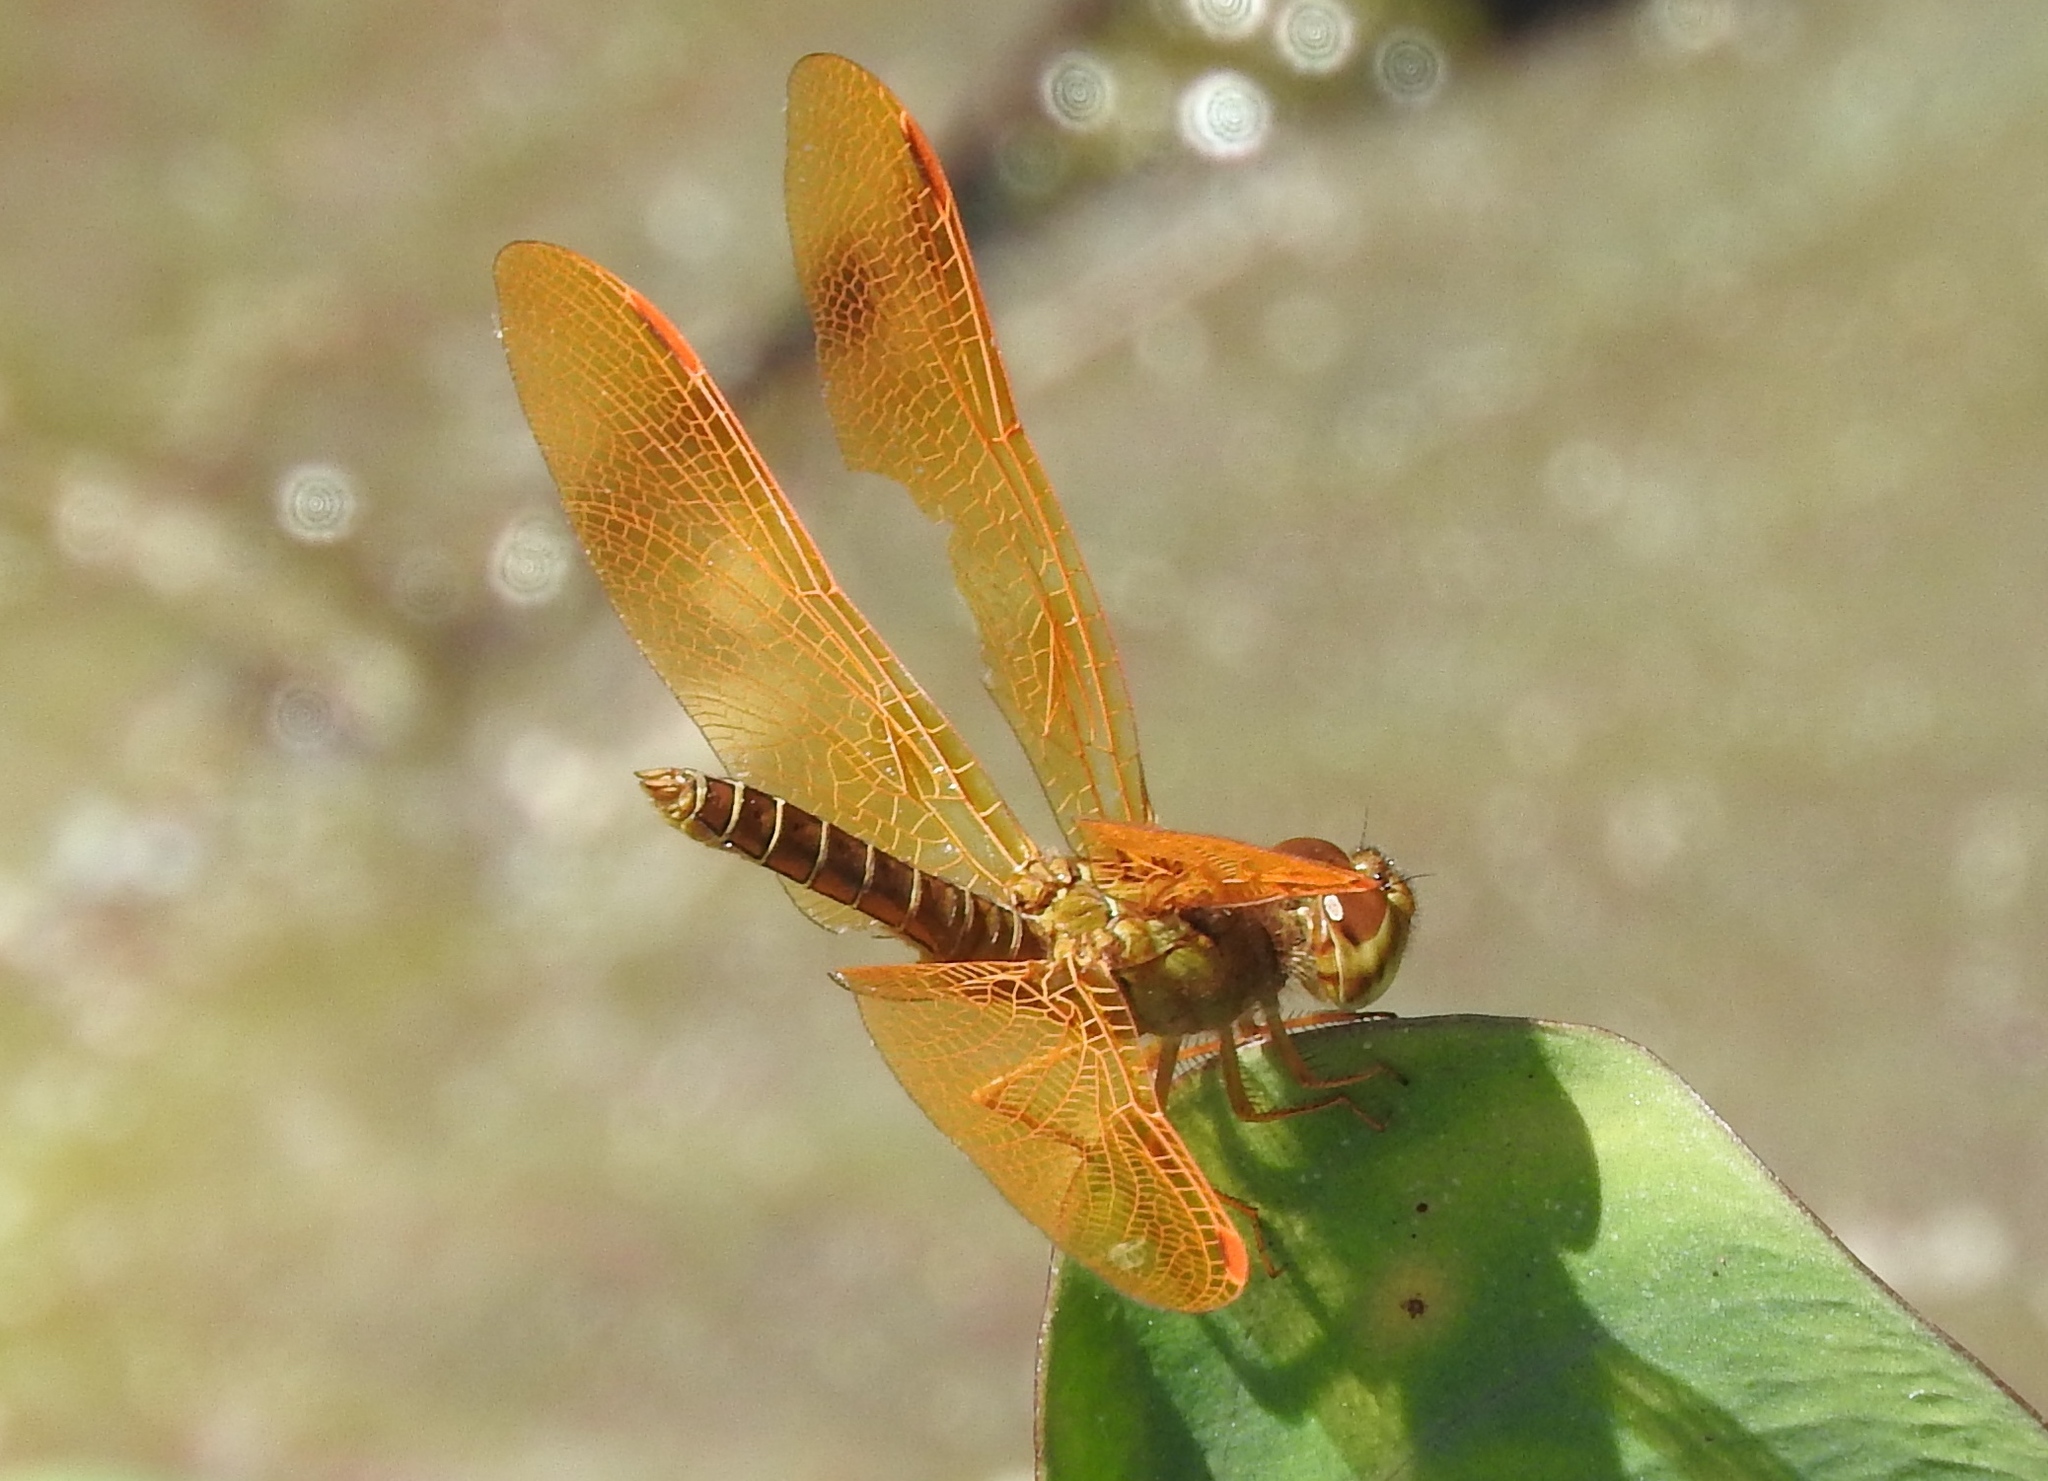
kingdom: Animalia
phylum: Arthropoda
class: Insecta
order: Odonata
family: Libellulidae
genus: Perithemis
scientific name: Perithemis
